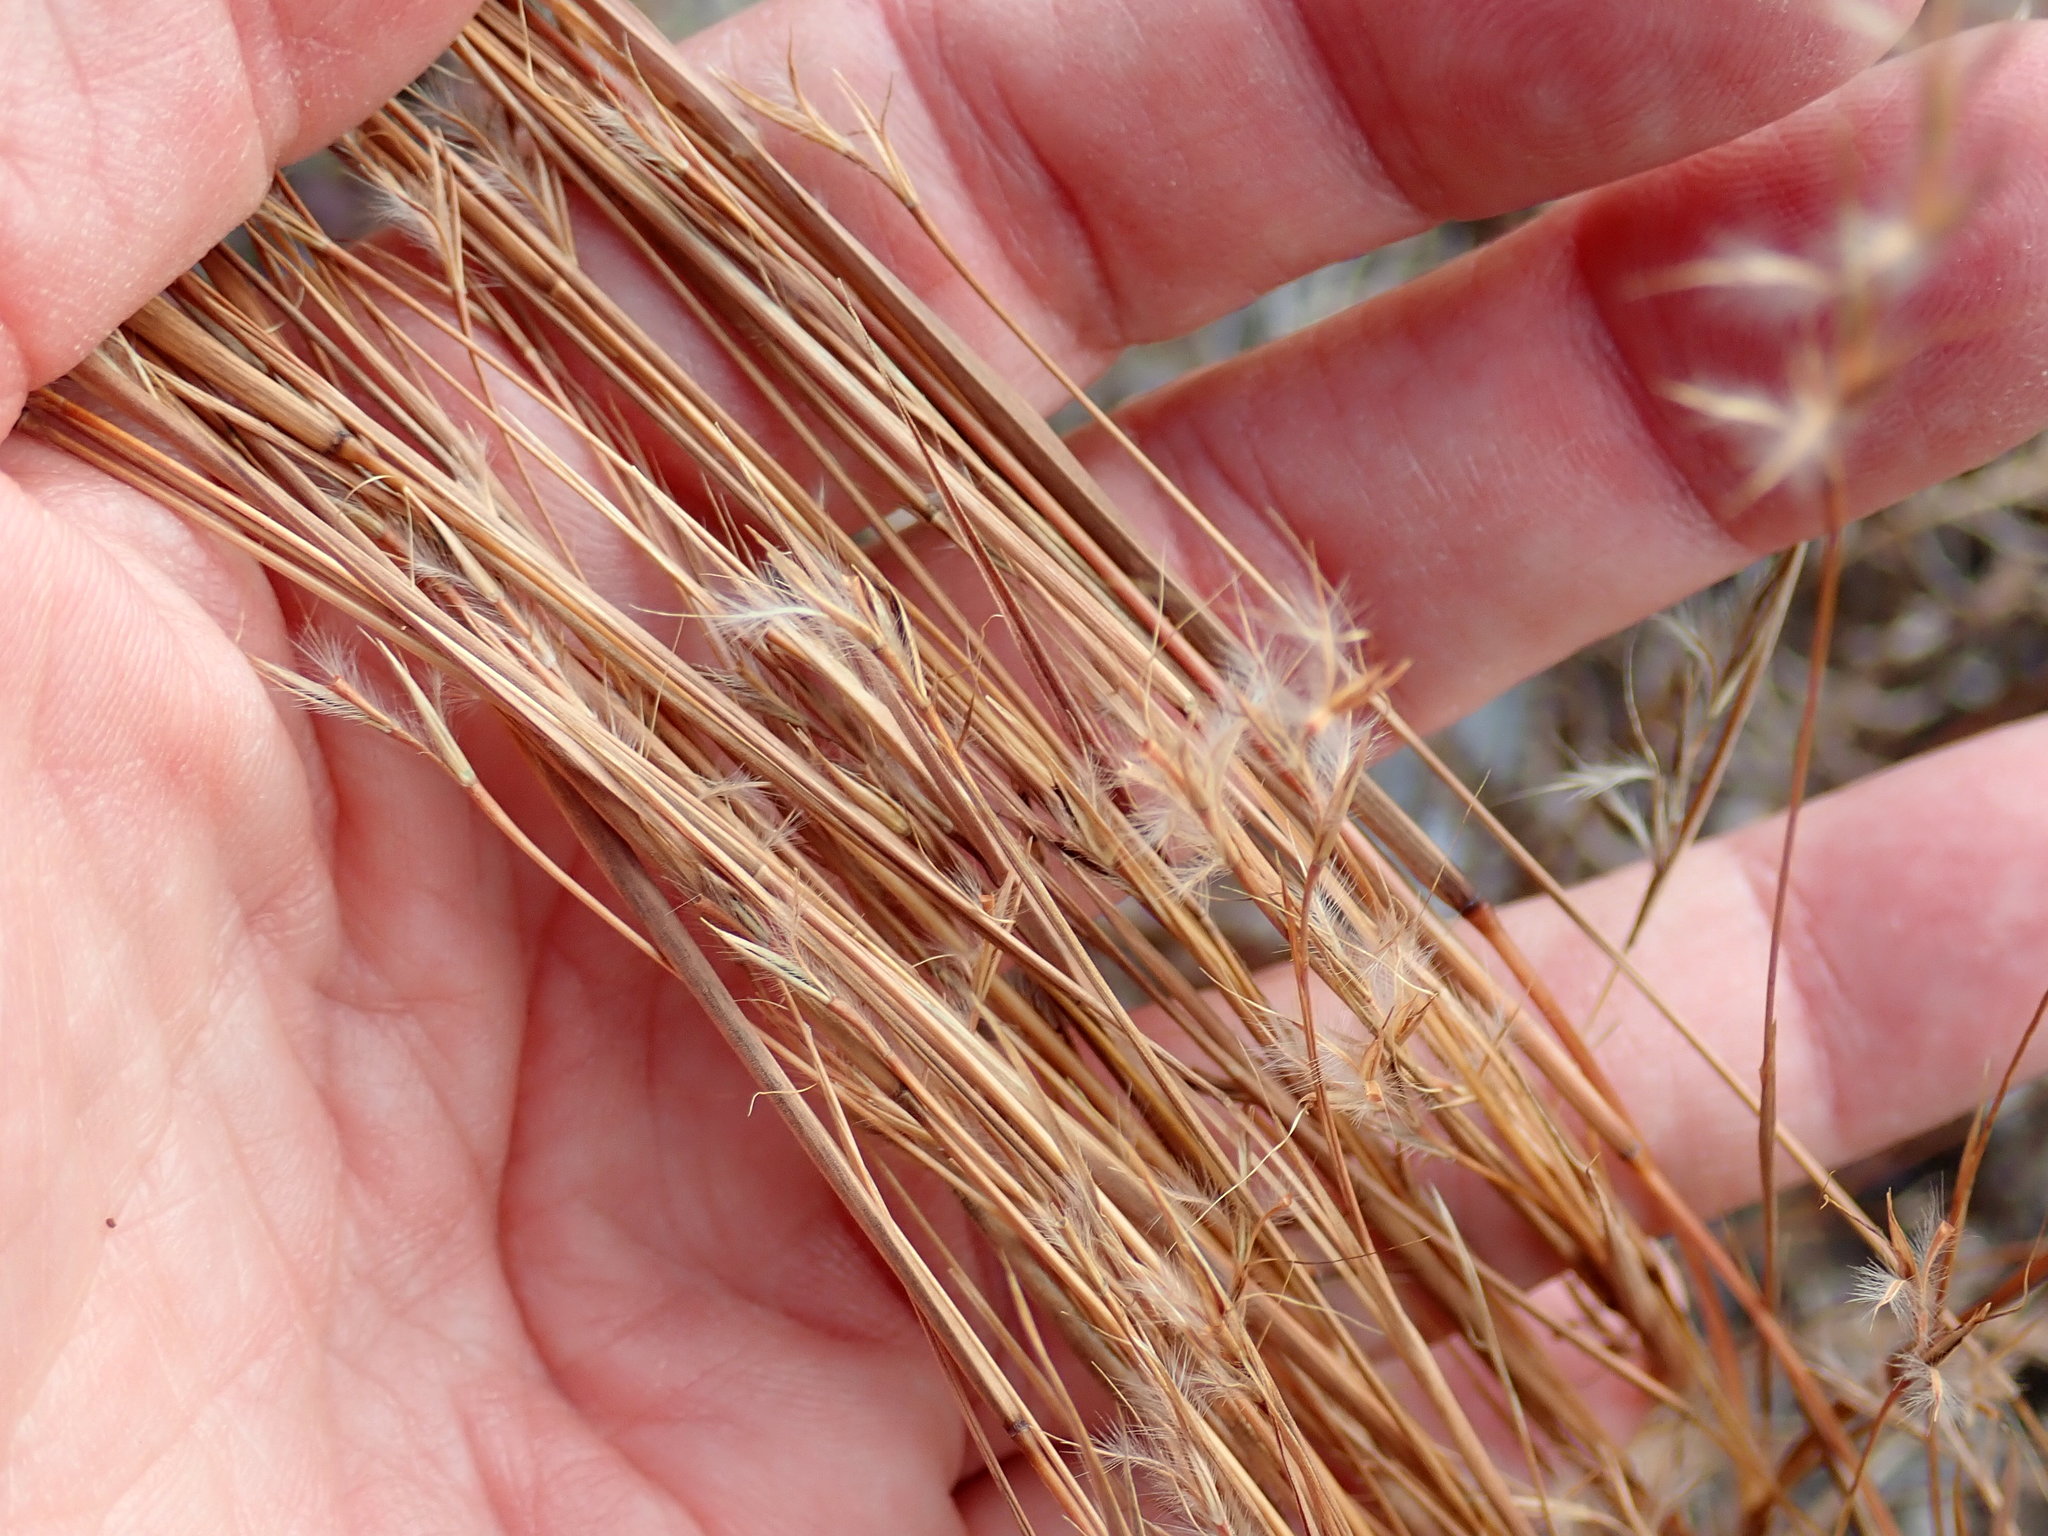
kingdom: Plantae
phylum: Tracheophyta
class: Liliopsida
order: Poales
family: Poaceae
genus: Schizachyrium
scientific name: Schizachyrium scoparium
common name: Little bluestem
